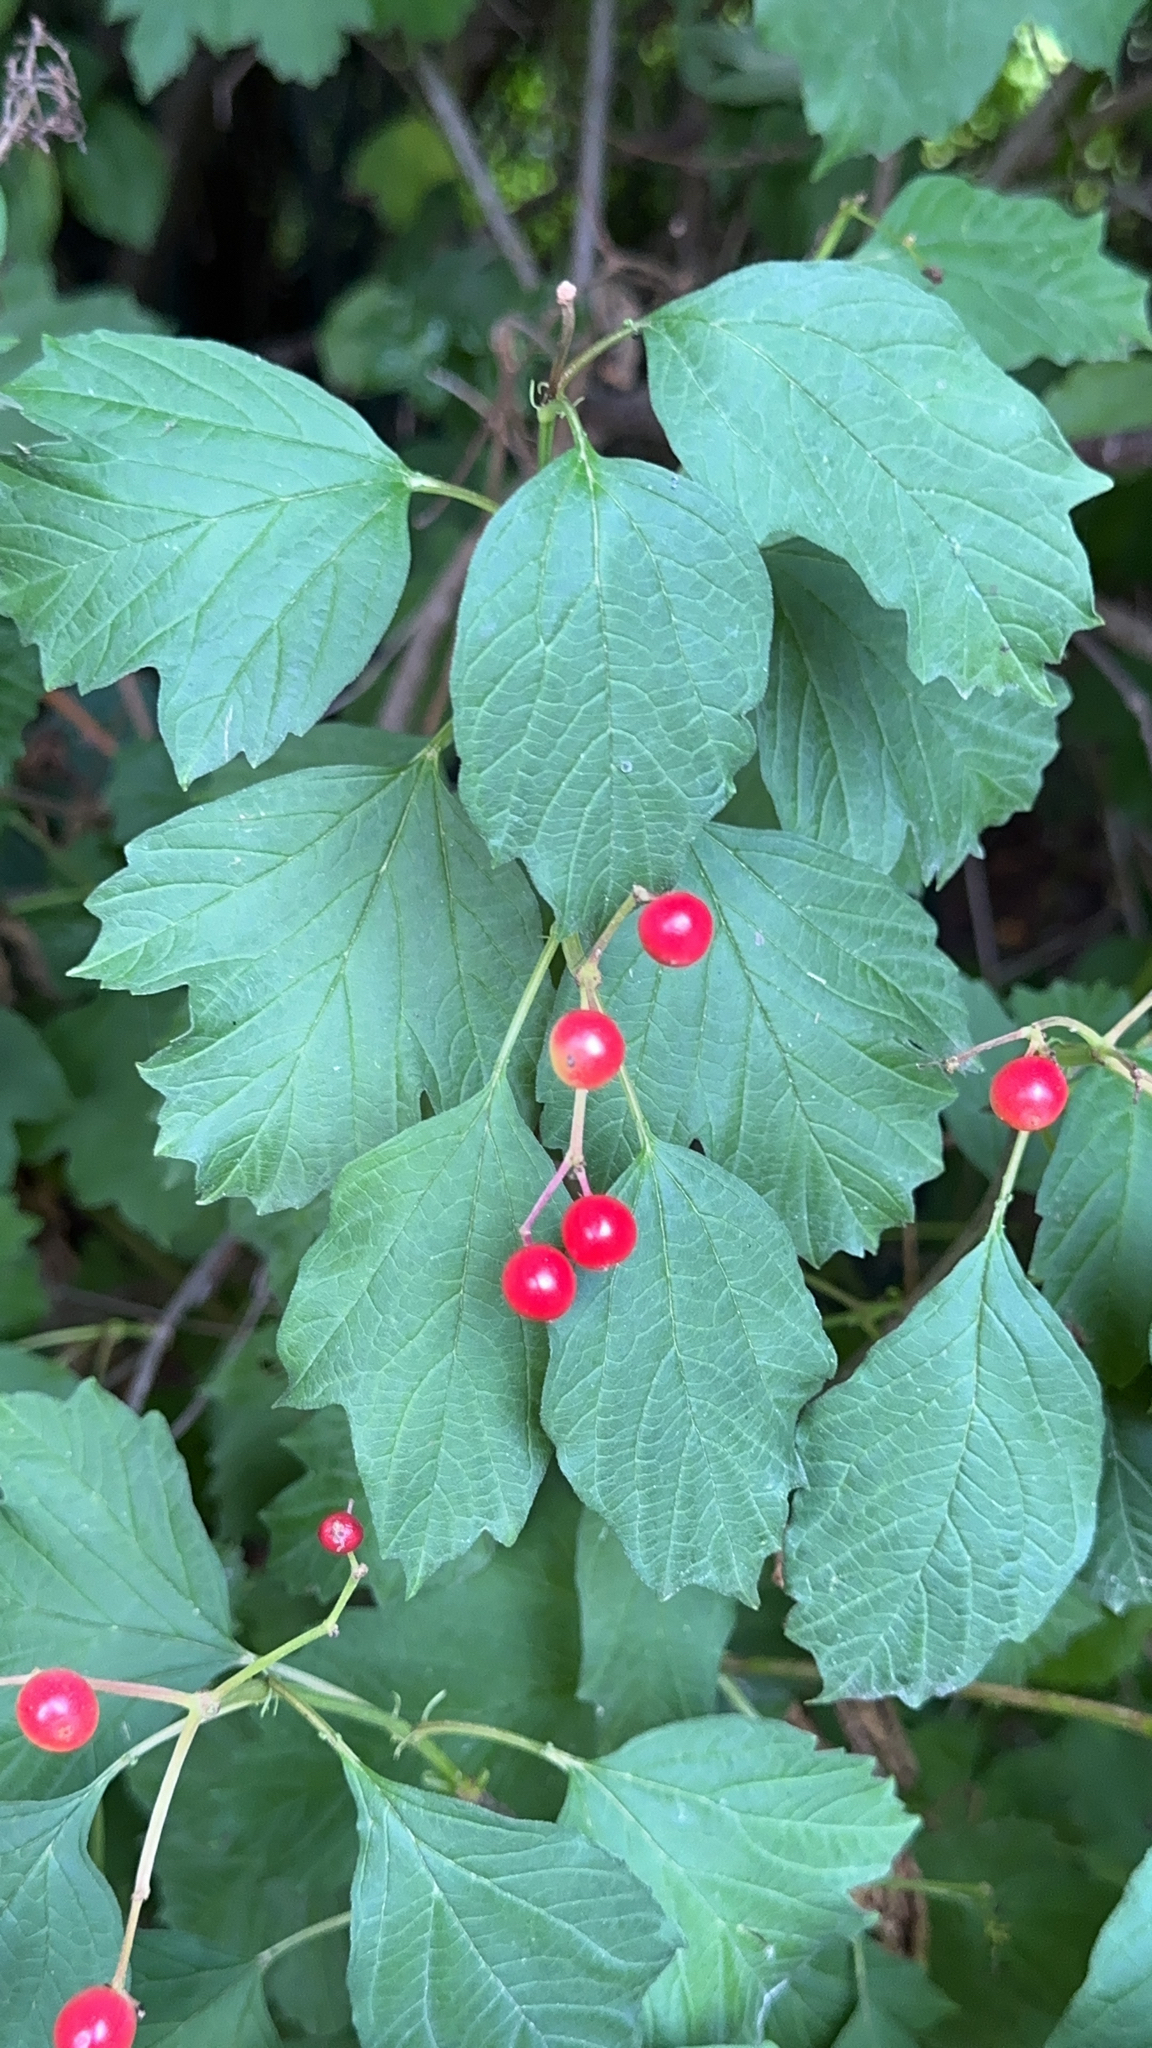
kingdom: Plantae
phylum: Tracheophyta
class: Magnoliopsida
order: Dipsacales
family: Viburnaceae
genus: Viburnum
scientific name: Viburnum opulus
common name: Guelder-rose
